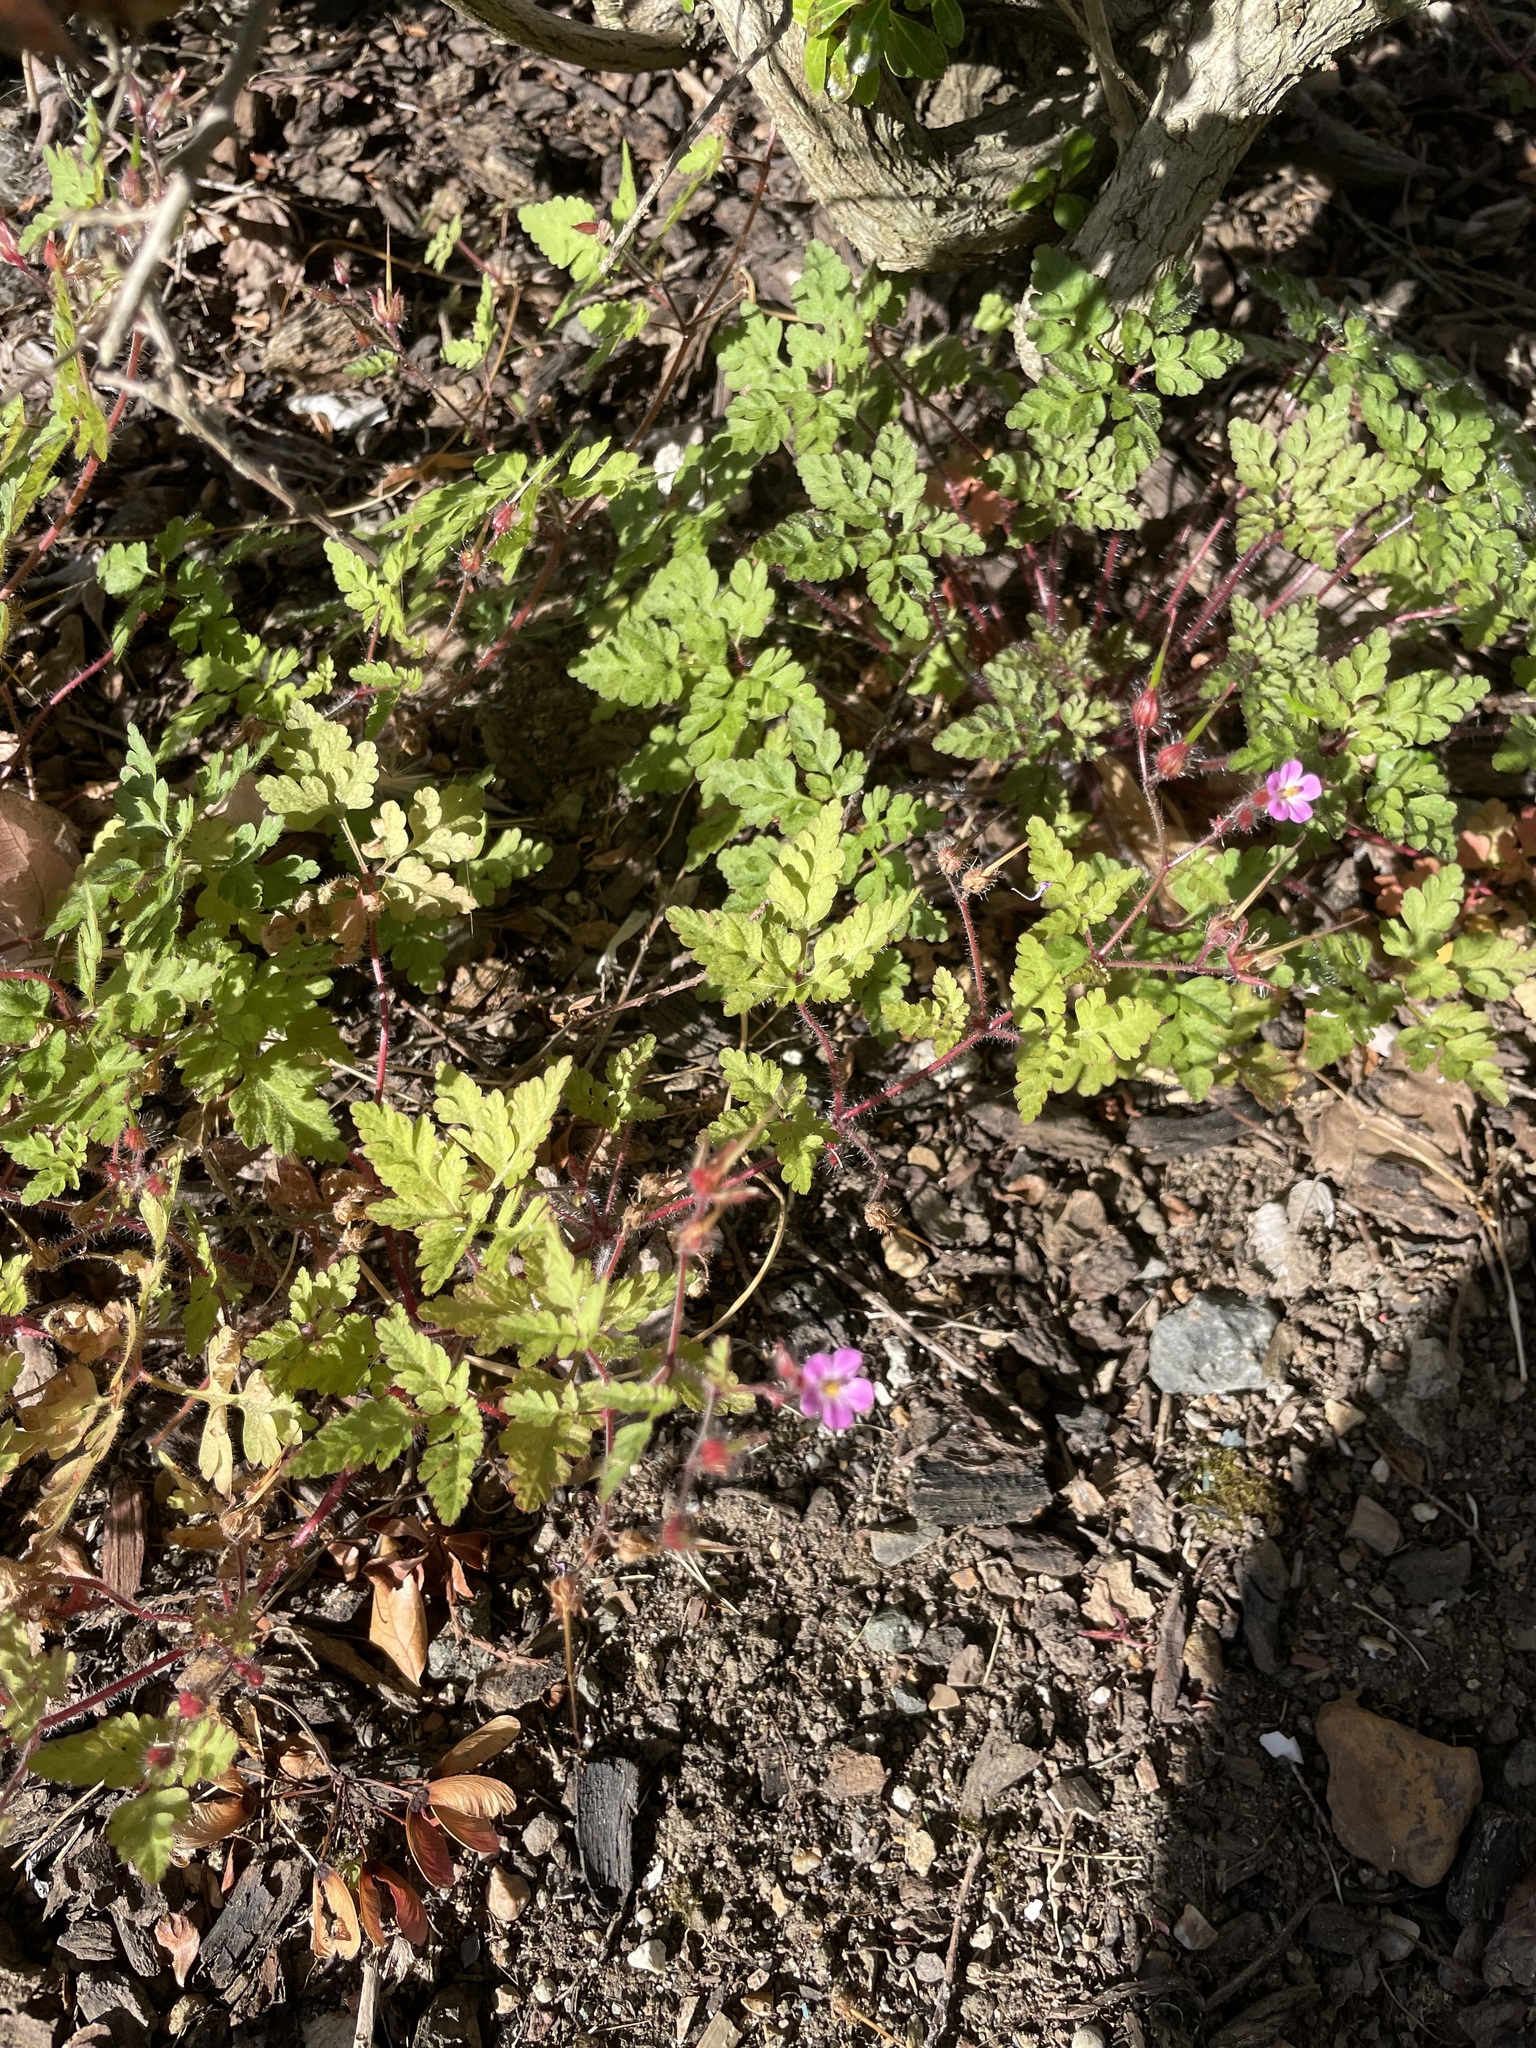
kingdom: Plantae
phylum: Tracheophyta
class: Magnoliopsida
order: Geraniales
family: Geraniaceae
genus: Geranium
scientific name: Geranium robertianum
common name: Herb-robert
